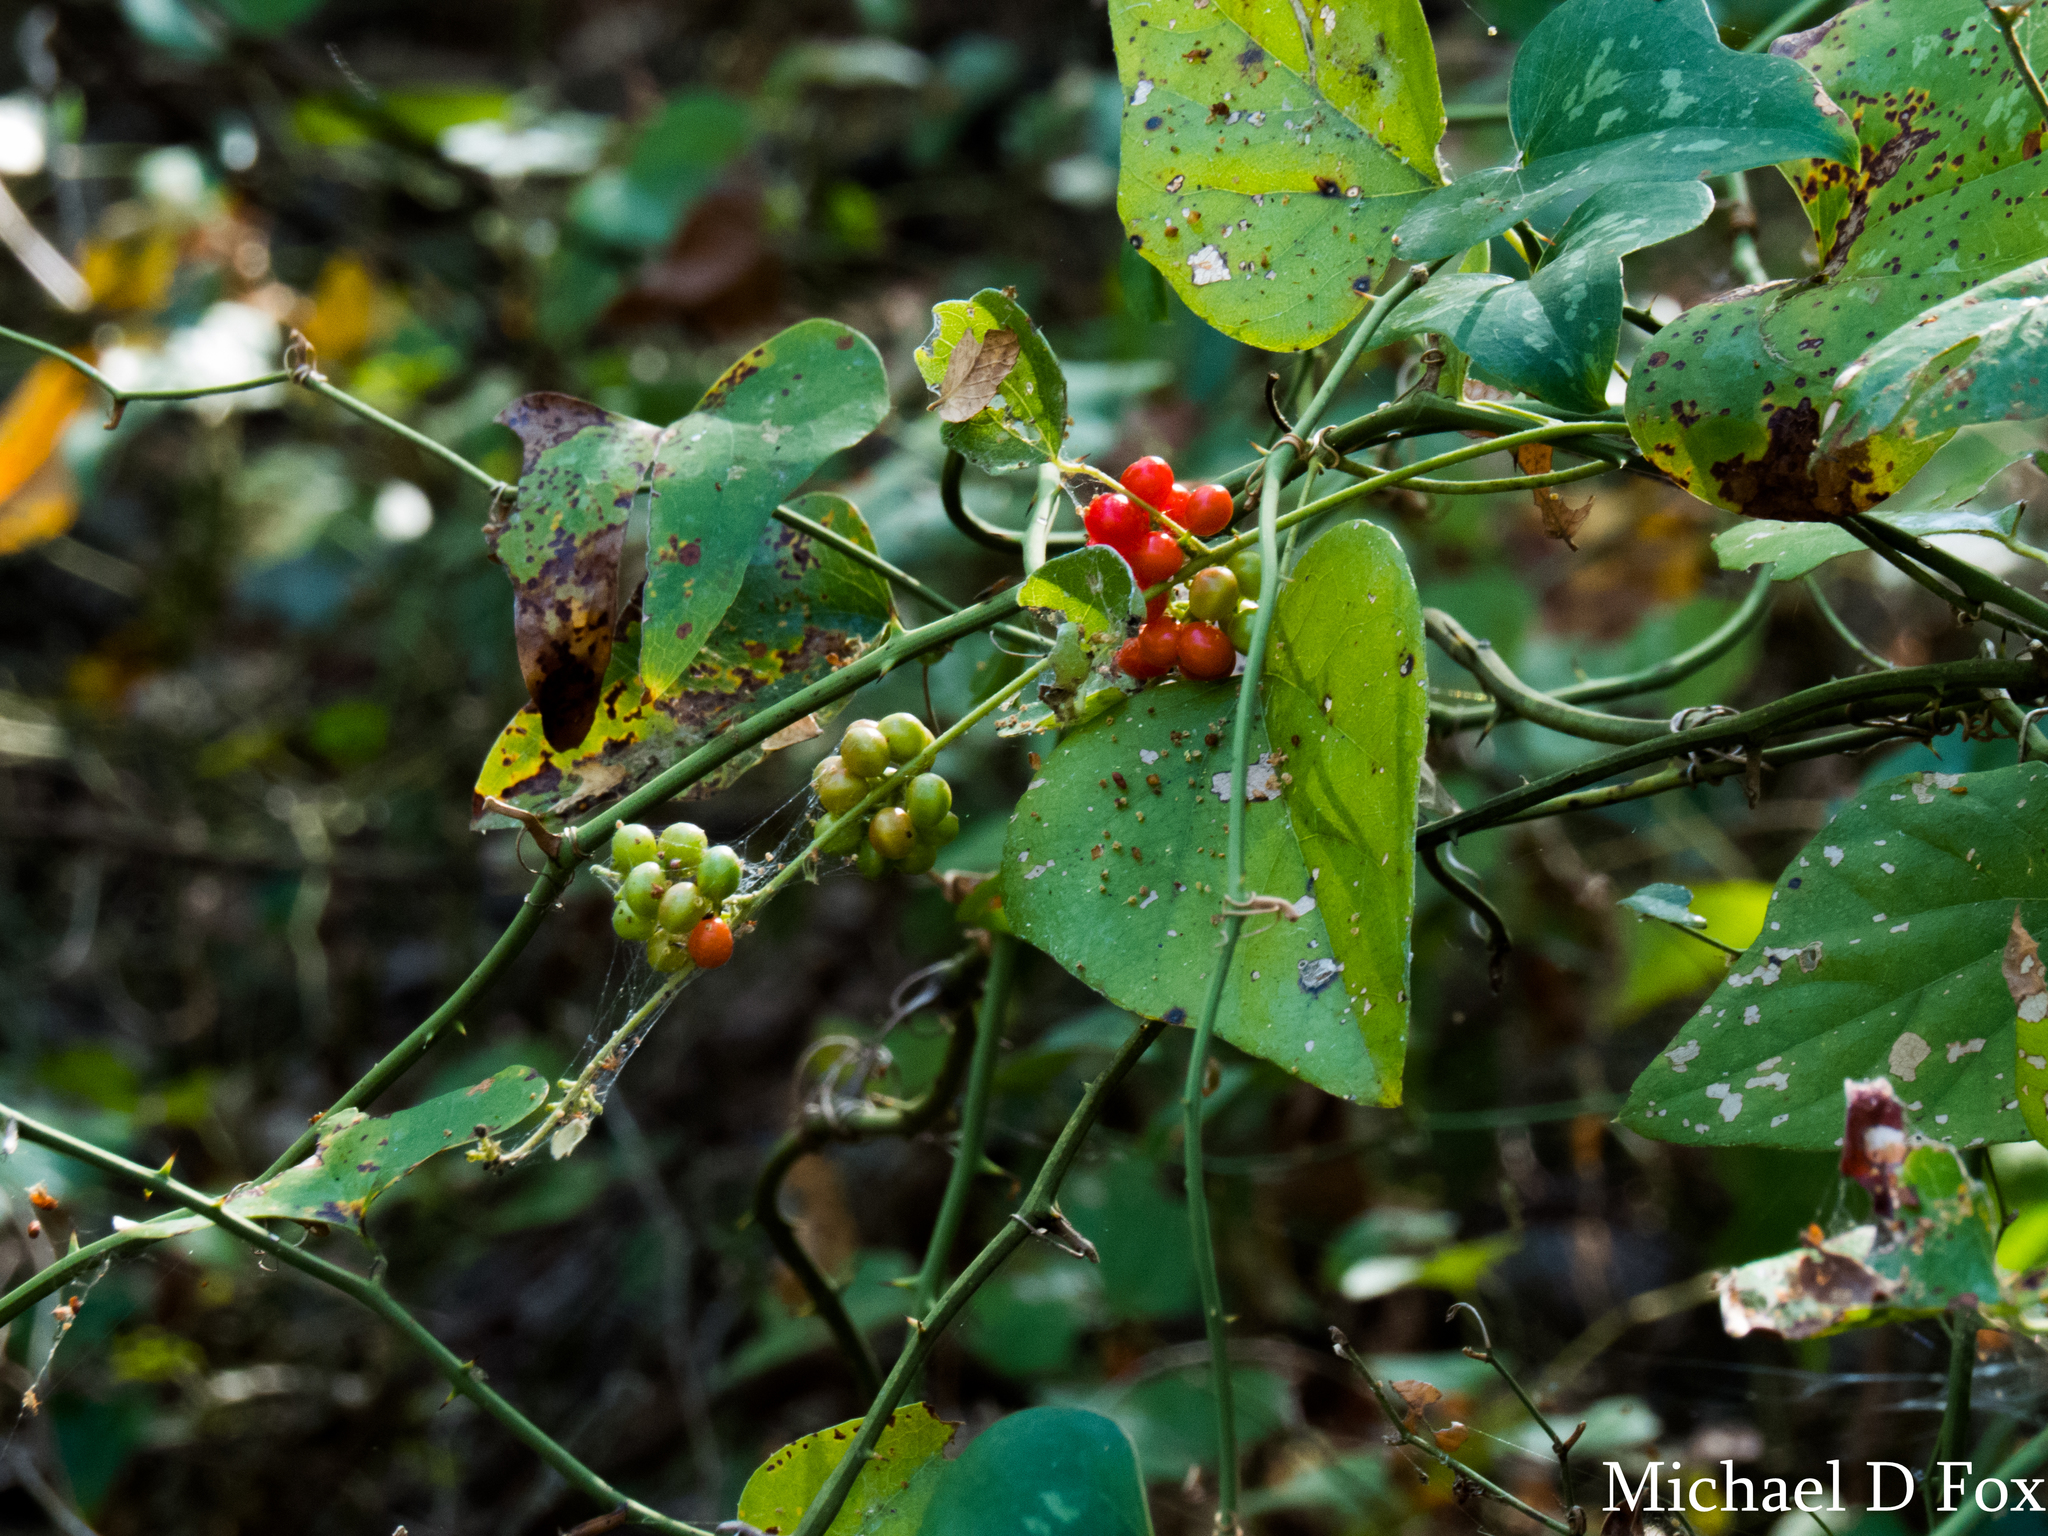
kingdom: Plantae
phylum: Tracheophyta
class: Magnoliopsida
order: Ranunculales
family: Menispermaceae
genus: Cocculus
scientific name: Cocculus carolinus
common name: Carolina moonseed
